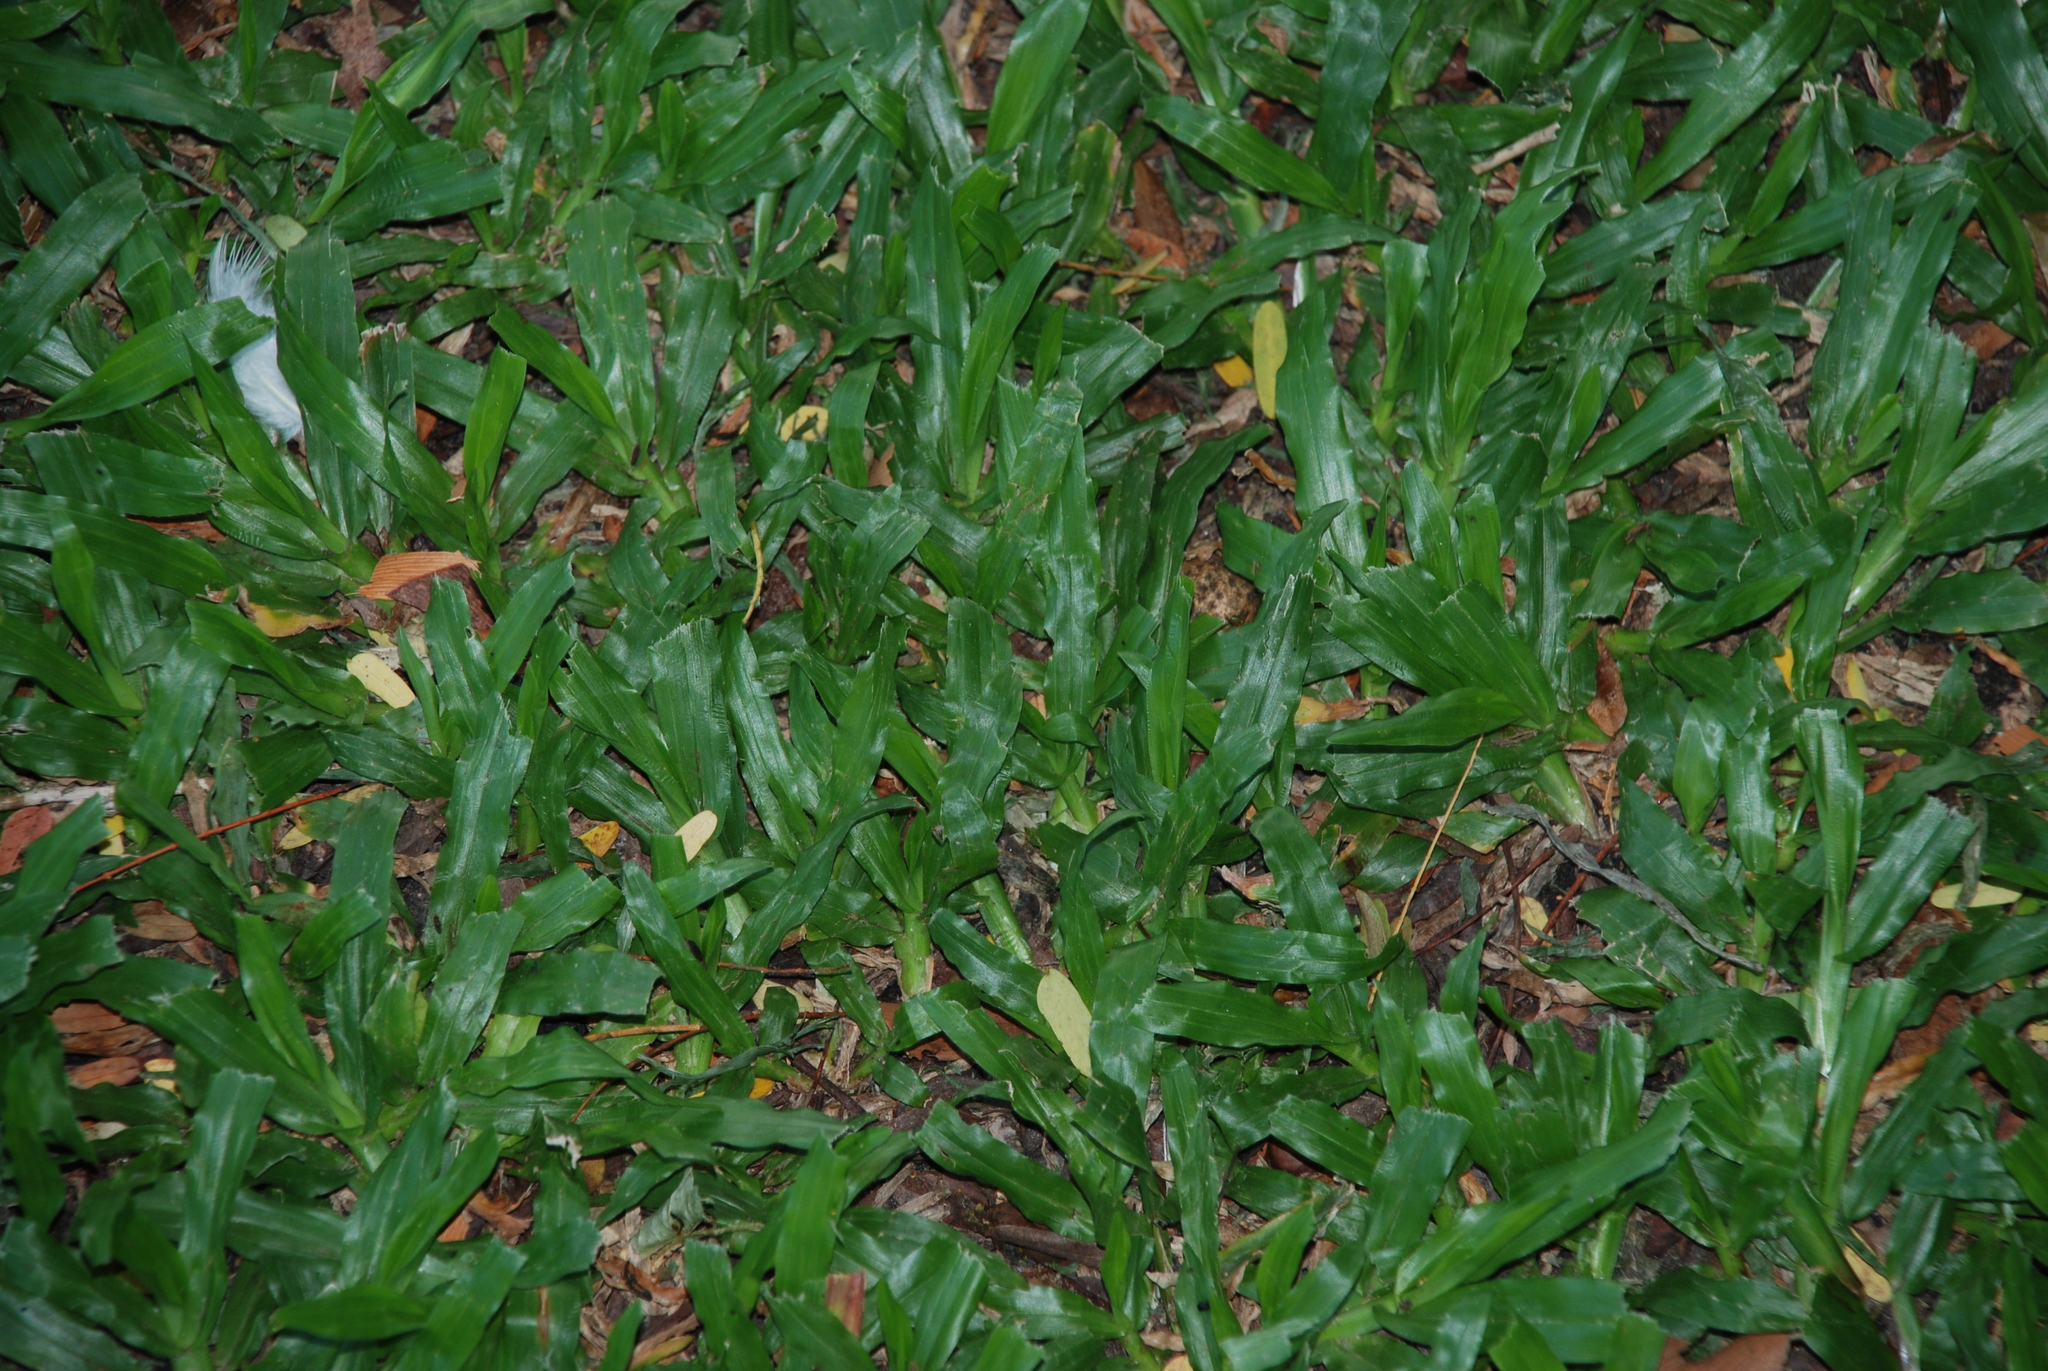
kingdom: Plantae
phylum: Tracheophyta
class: Liliopsida
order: Poales
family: Poaceae
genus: Axonopus
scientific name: Axonopus compressus
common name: American carpet grass
